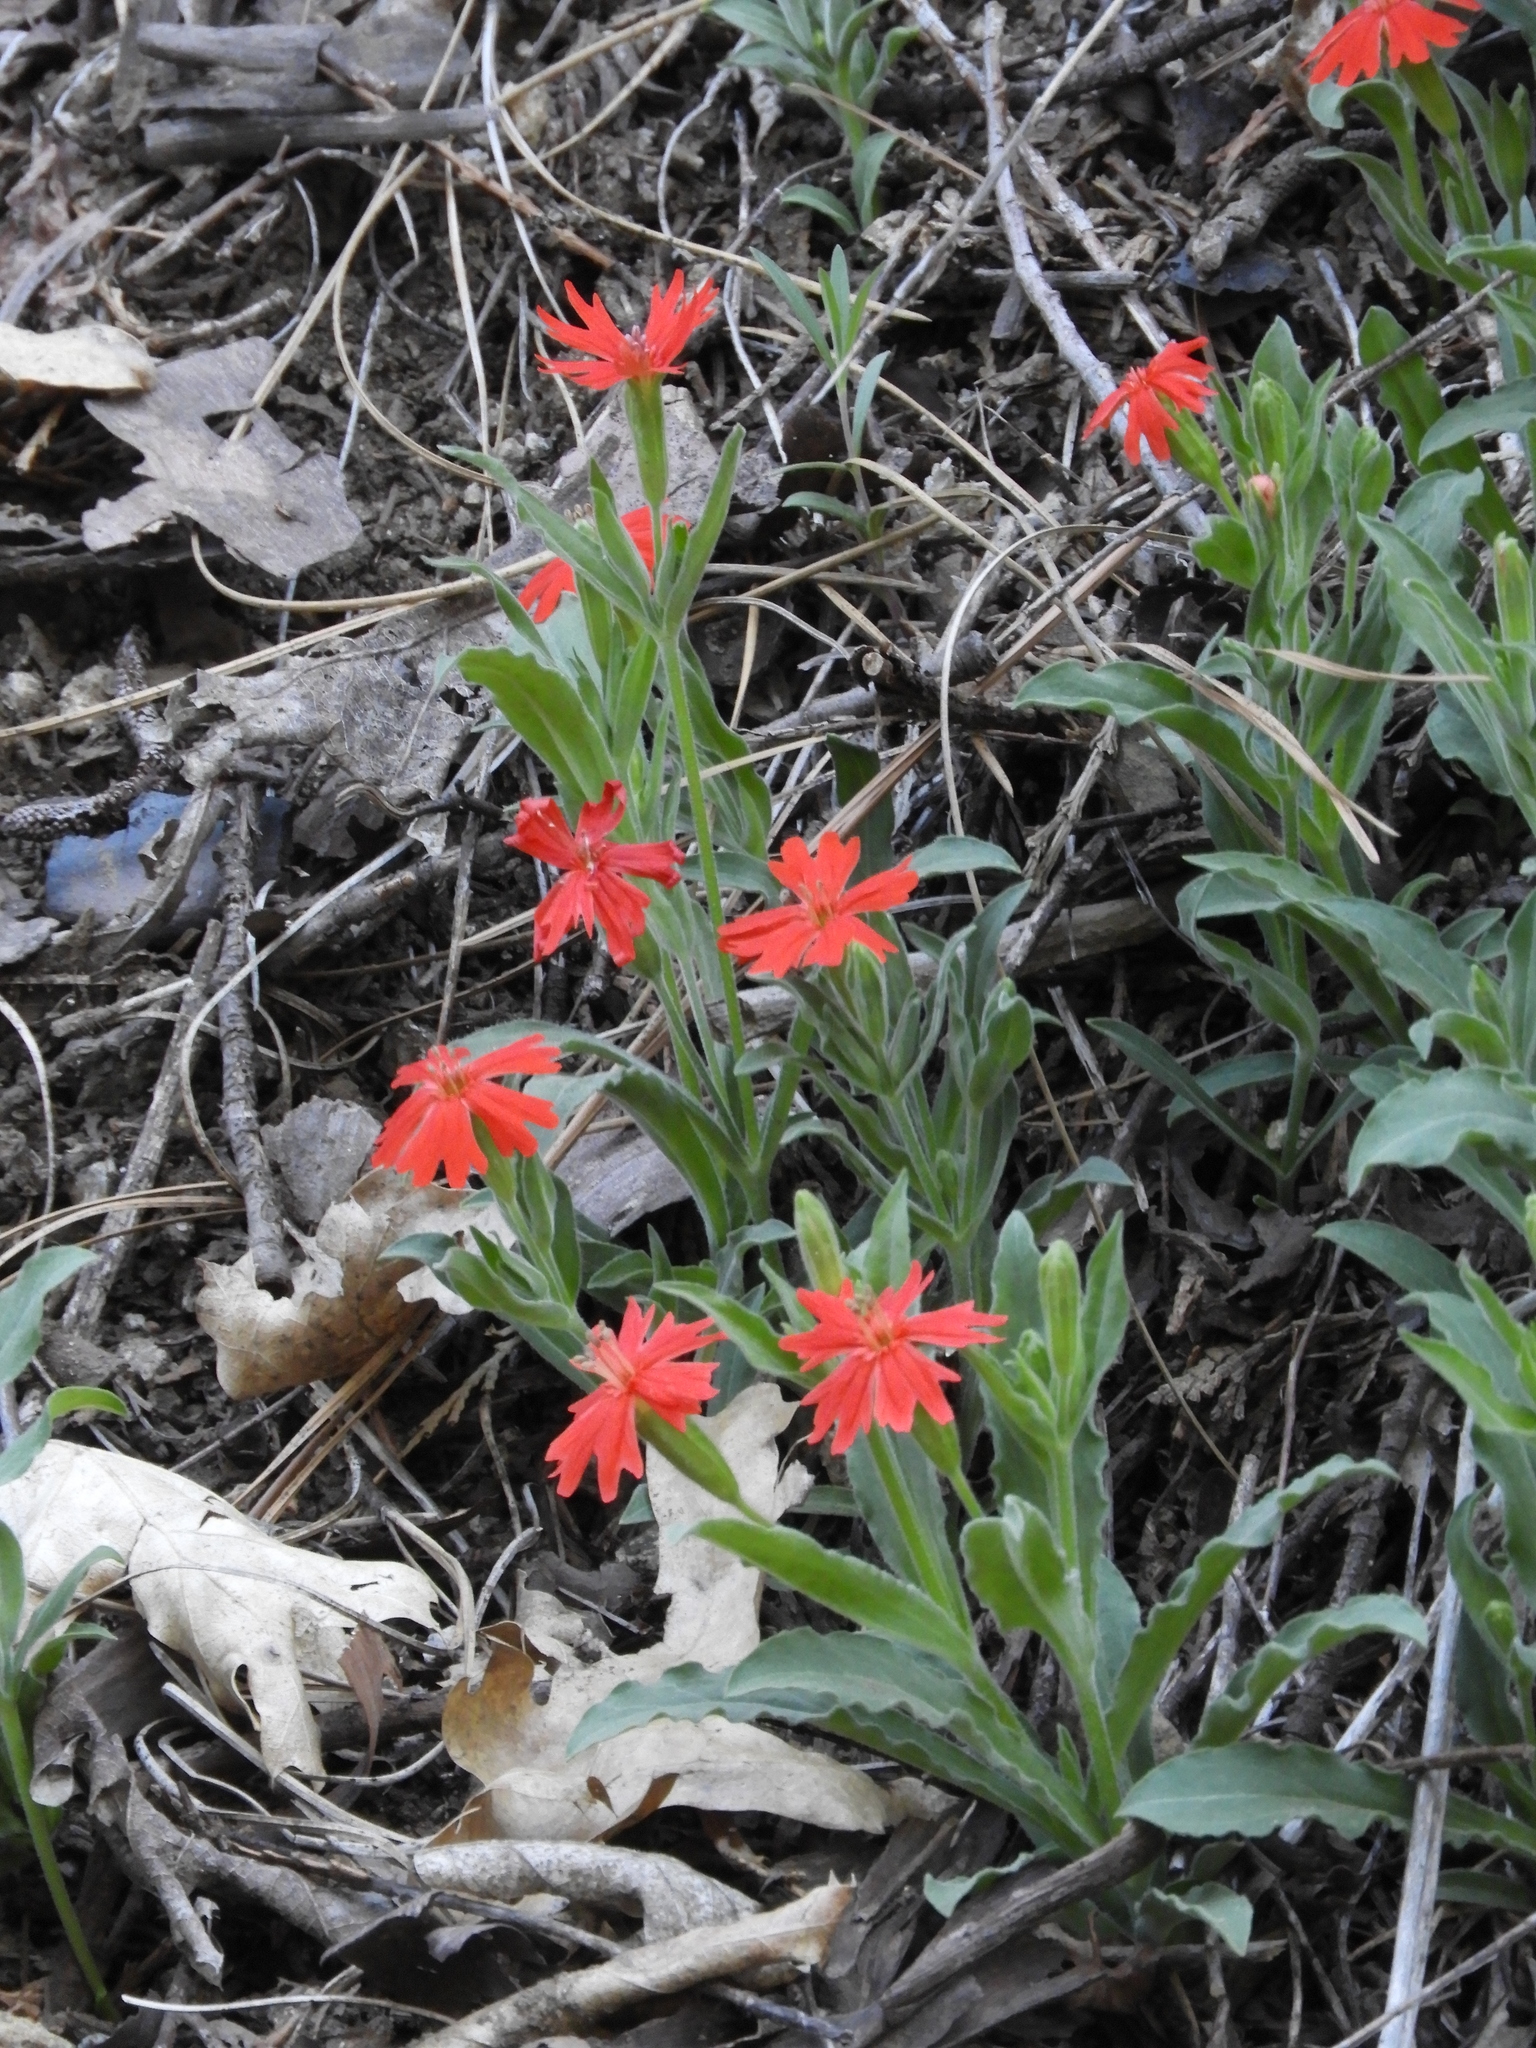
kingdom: Plantae
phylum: Tracheophyta
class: Magnoliopsida
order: Caryophyllales
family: Caryophyllaceae
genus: Silene
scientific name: Silene laciniata
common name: Indian-pink
